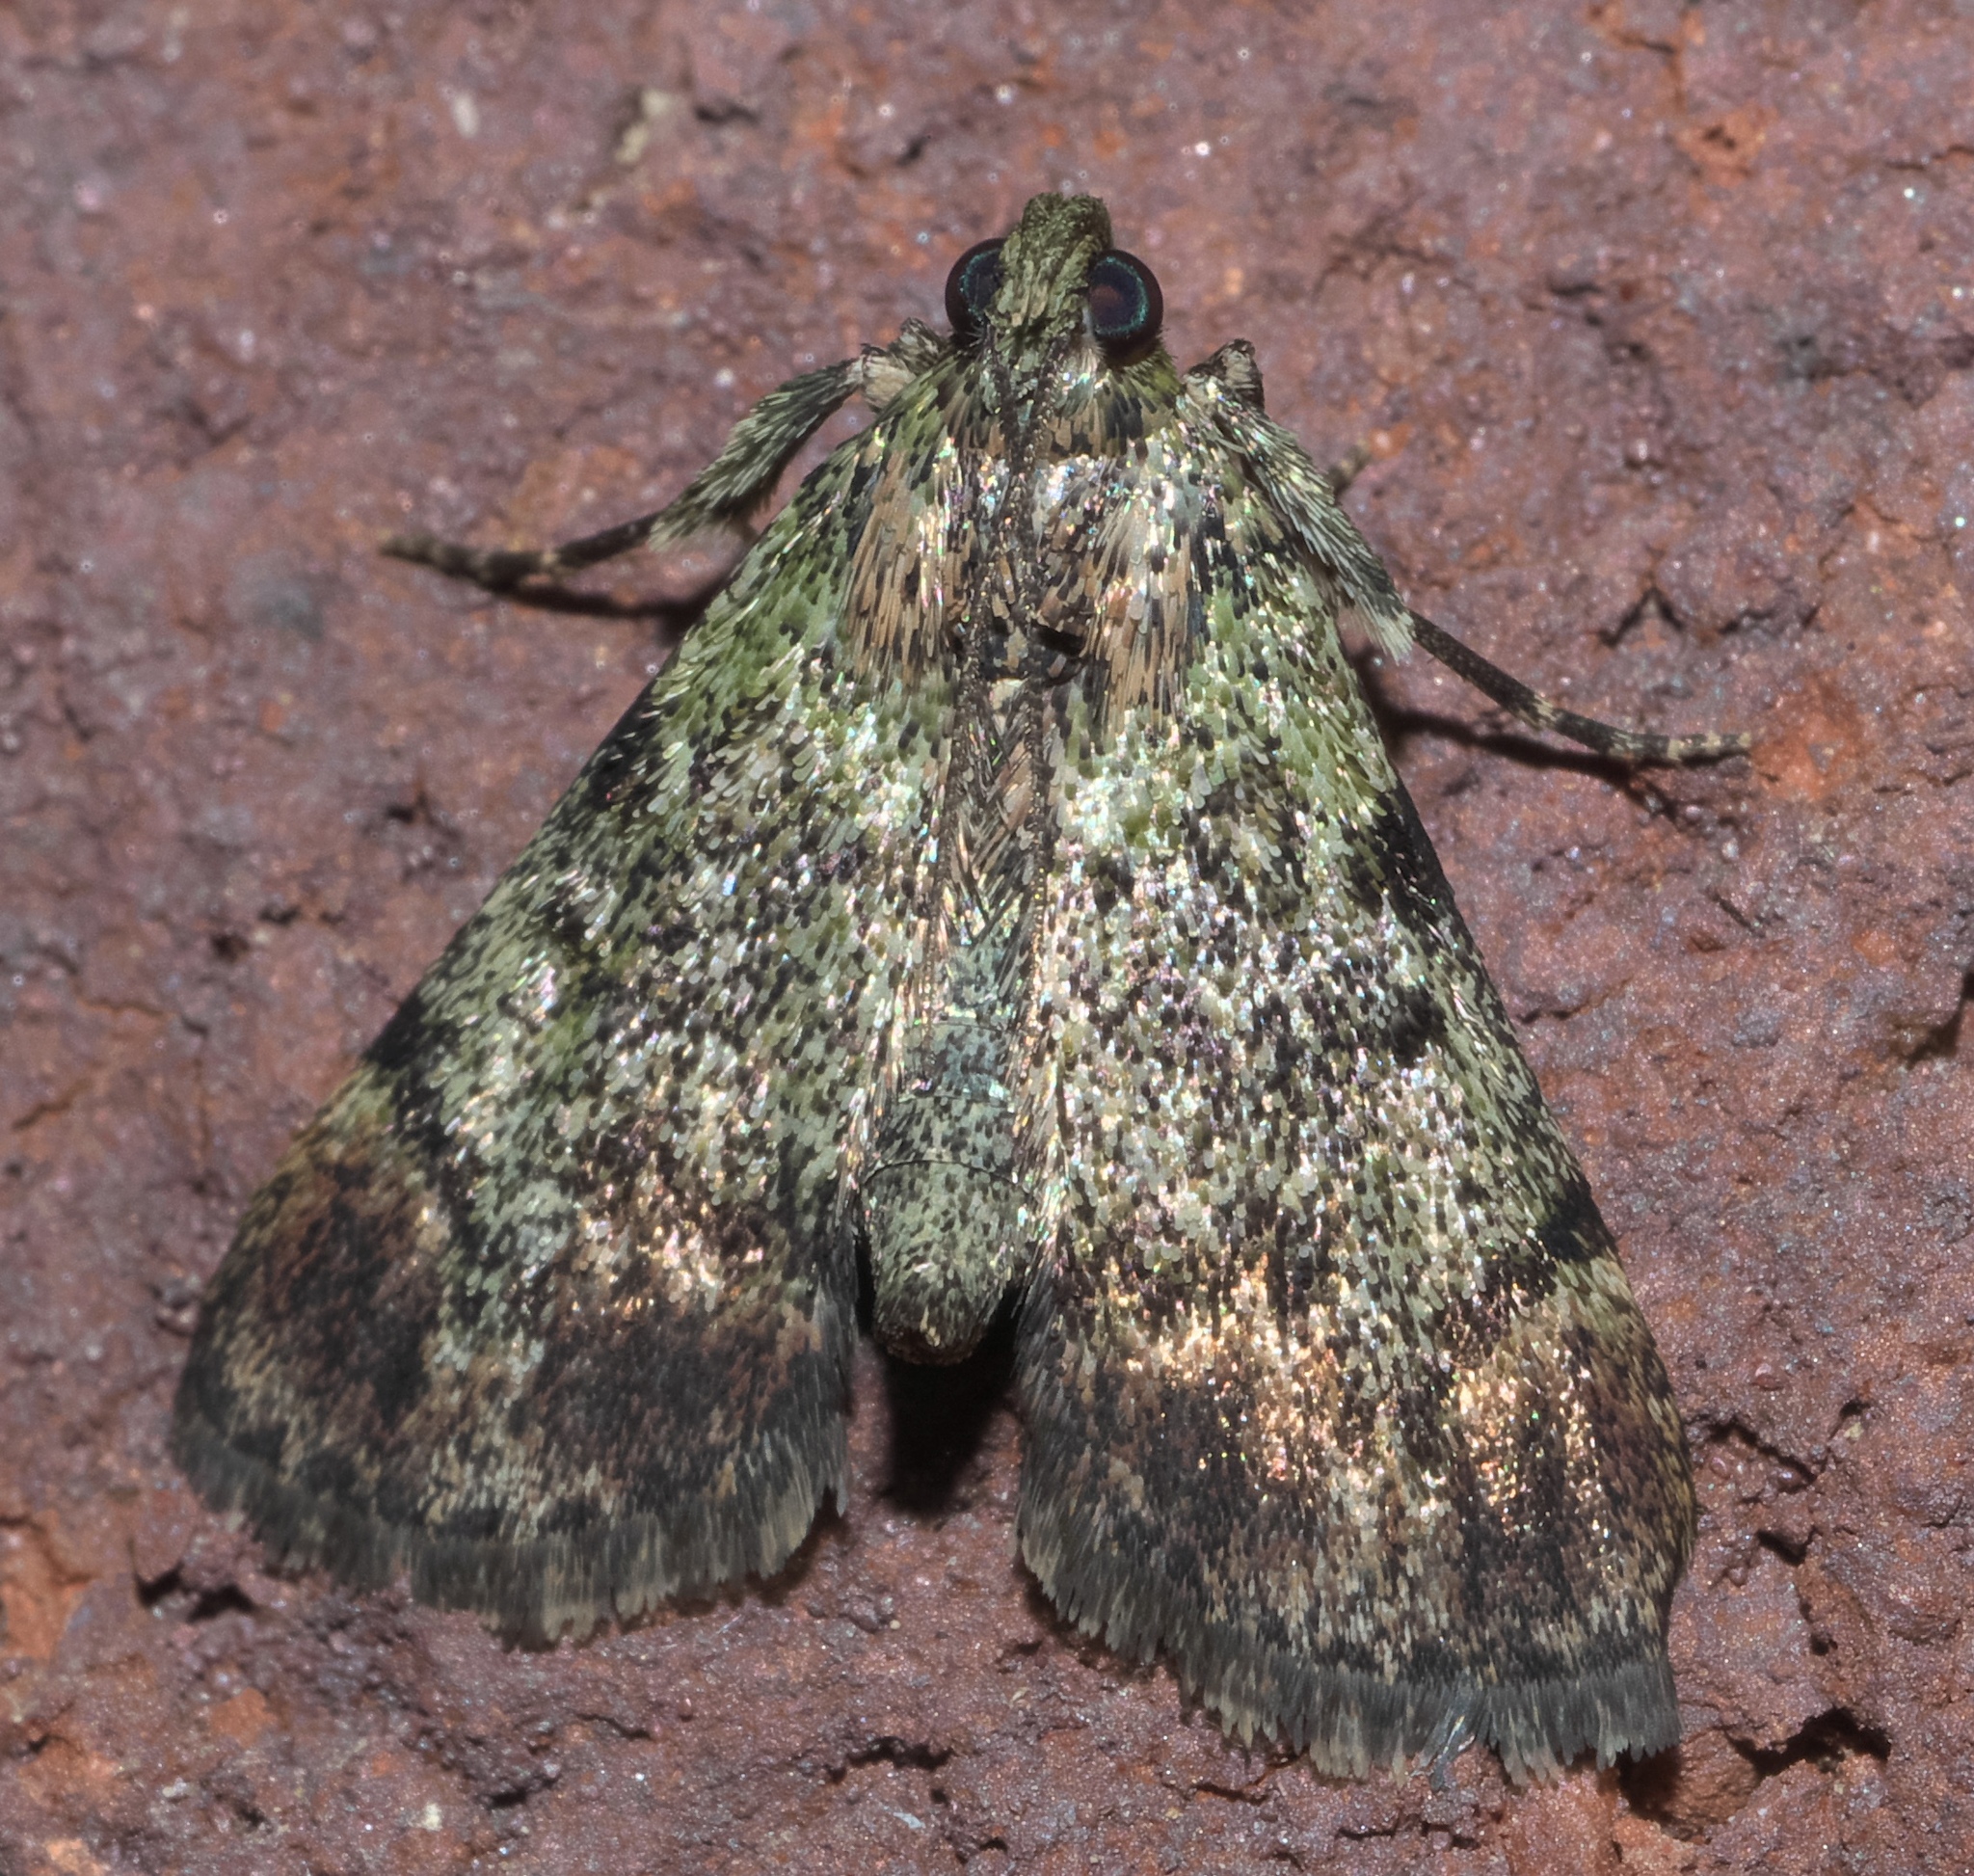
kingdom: Animalia
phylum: Arthropoda
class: Insecta
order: Lepidoptera
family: Pyralidae
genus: Epipaschia
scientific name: Epipaschia superatalis
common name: Dimorphic macalla moth
